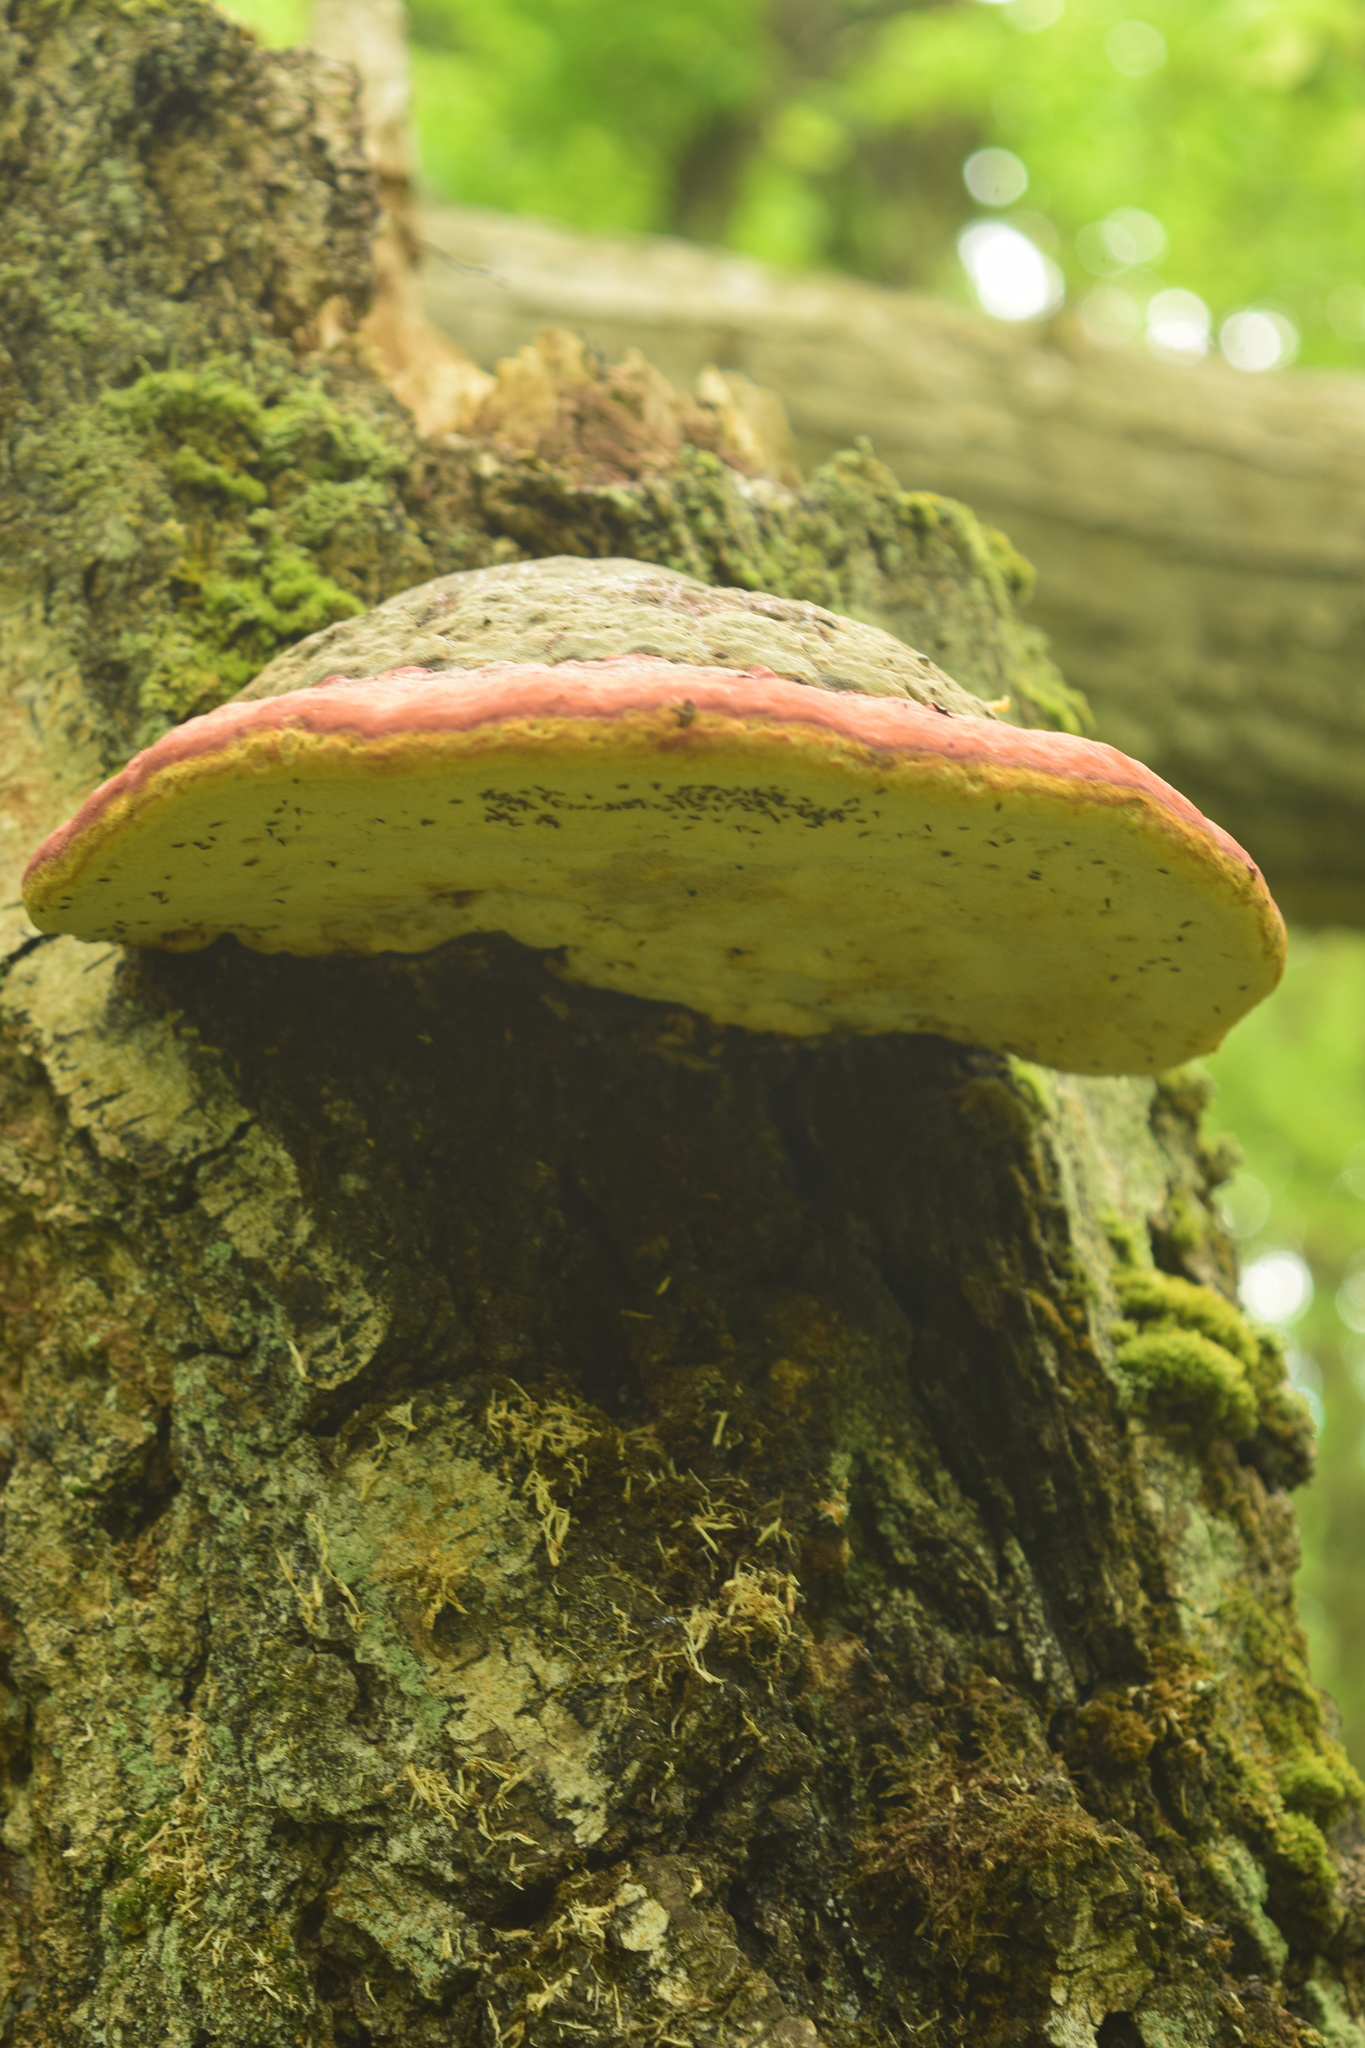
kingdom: Fungi
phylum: Basidiomycota
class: Agaricomycetes
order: Polyporales
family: Fomitopsidaceae
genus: Fomitopsis
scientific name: Fomitopsis pinicola
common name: Red-belted bracket
